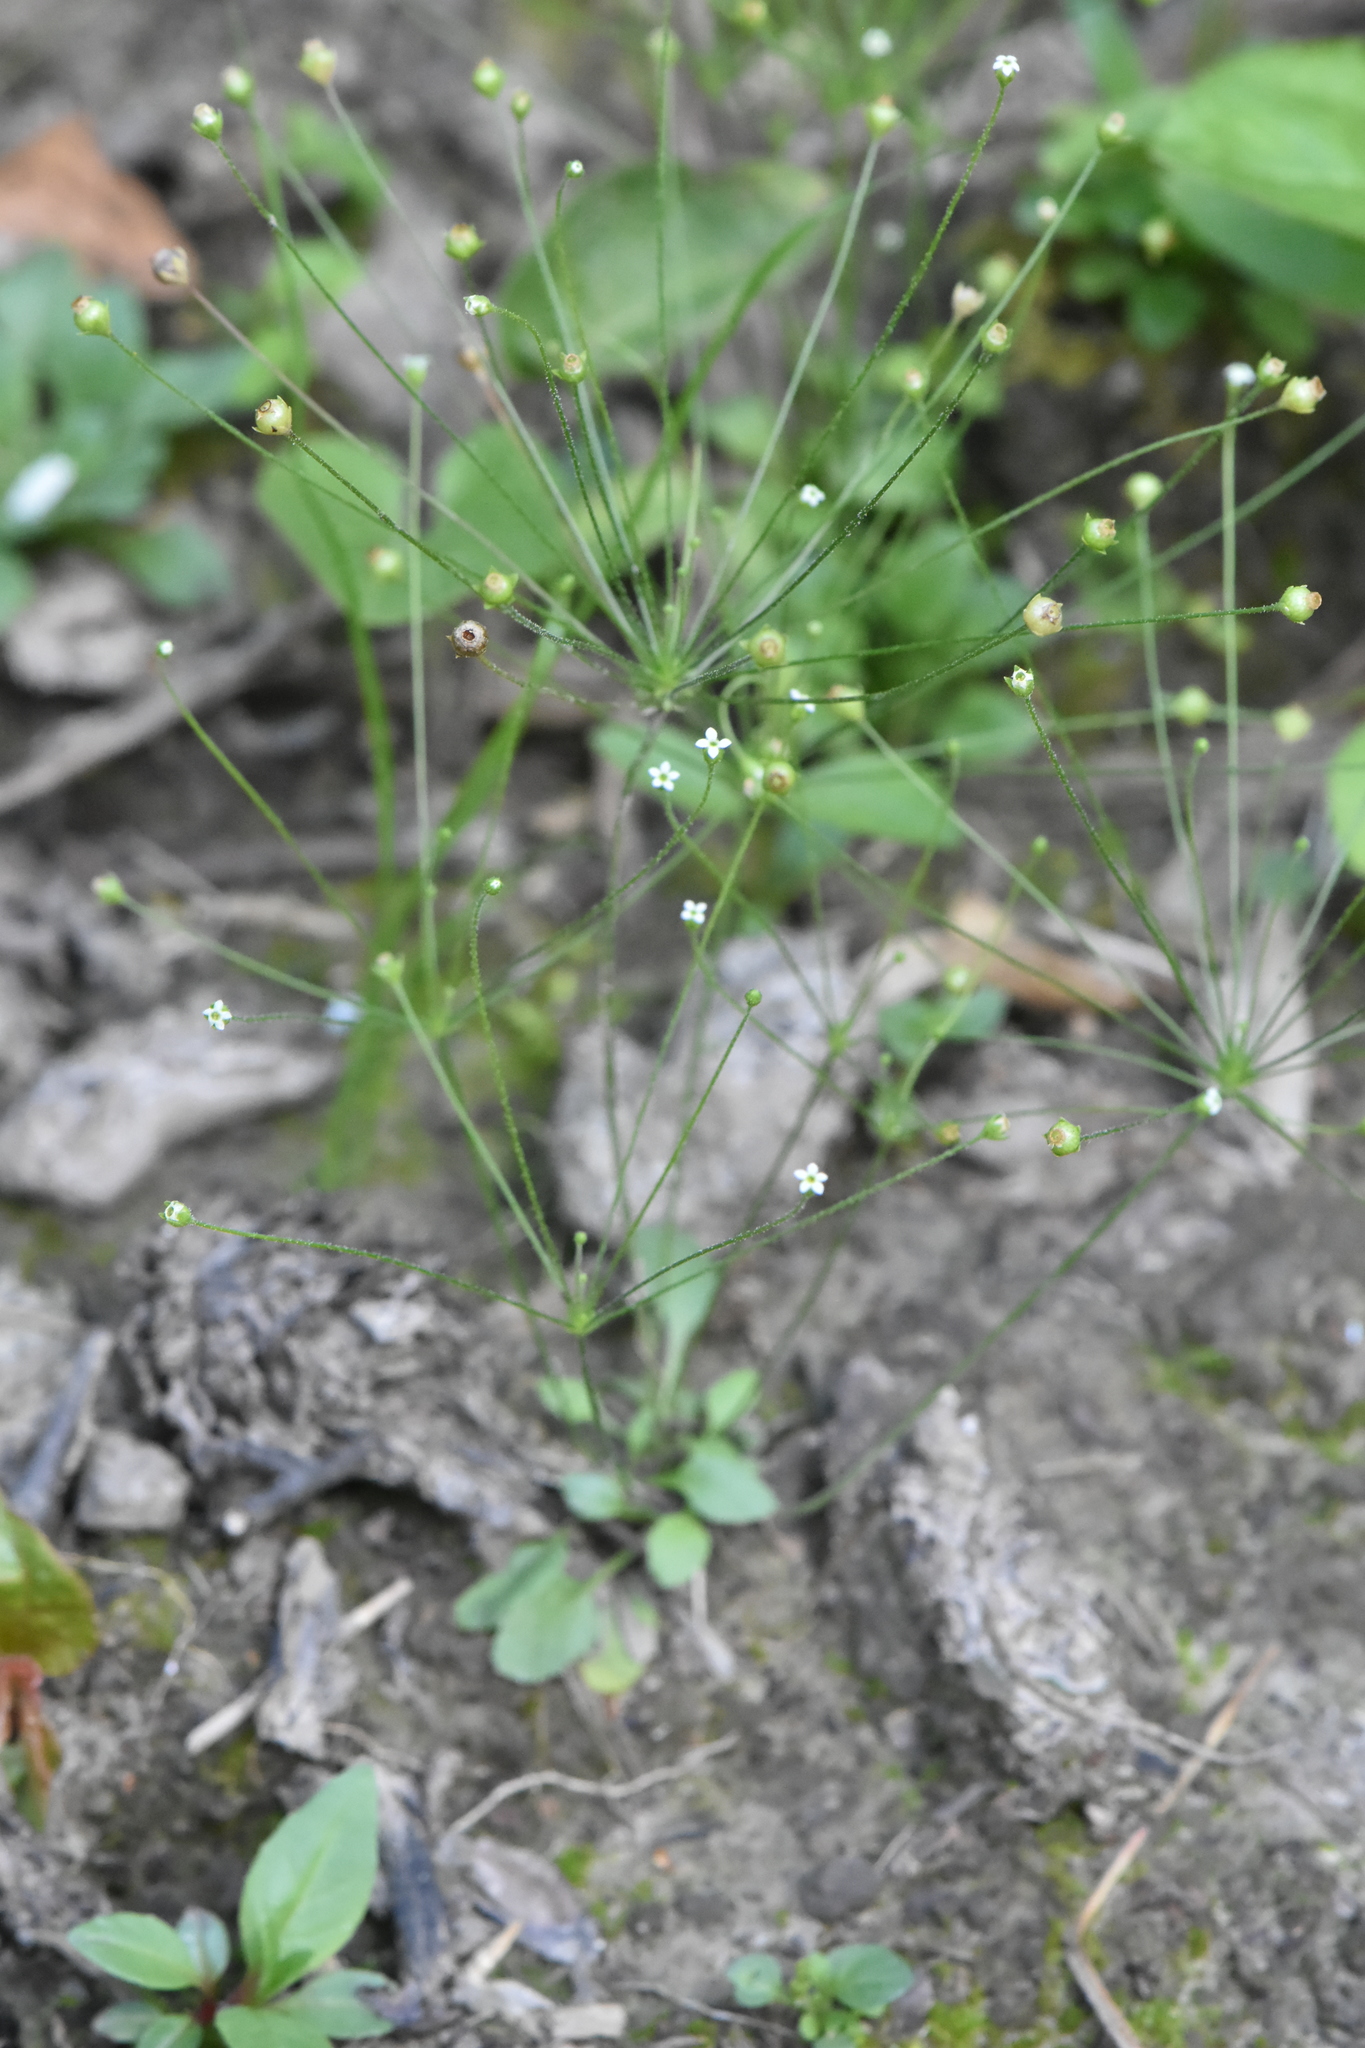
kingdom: Plantae
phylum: Tracheophyta
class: Magnoliopsida
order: Ericales
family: Primulaceae
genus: Androsace
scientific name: Androsace filiformis
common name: Filiform rock jasmine
